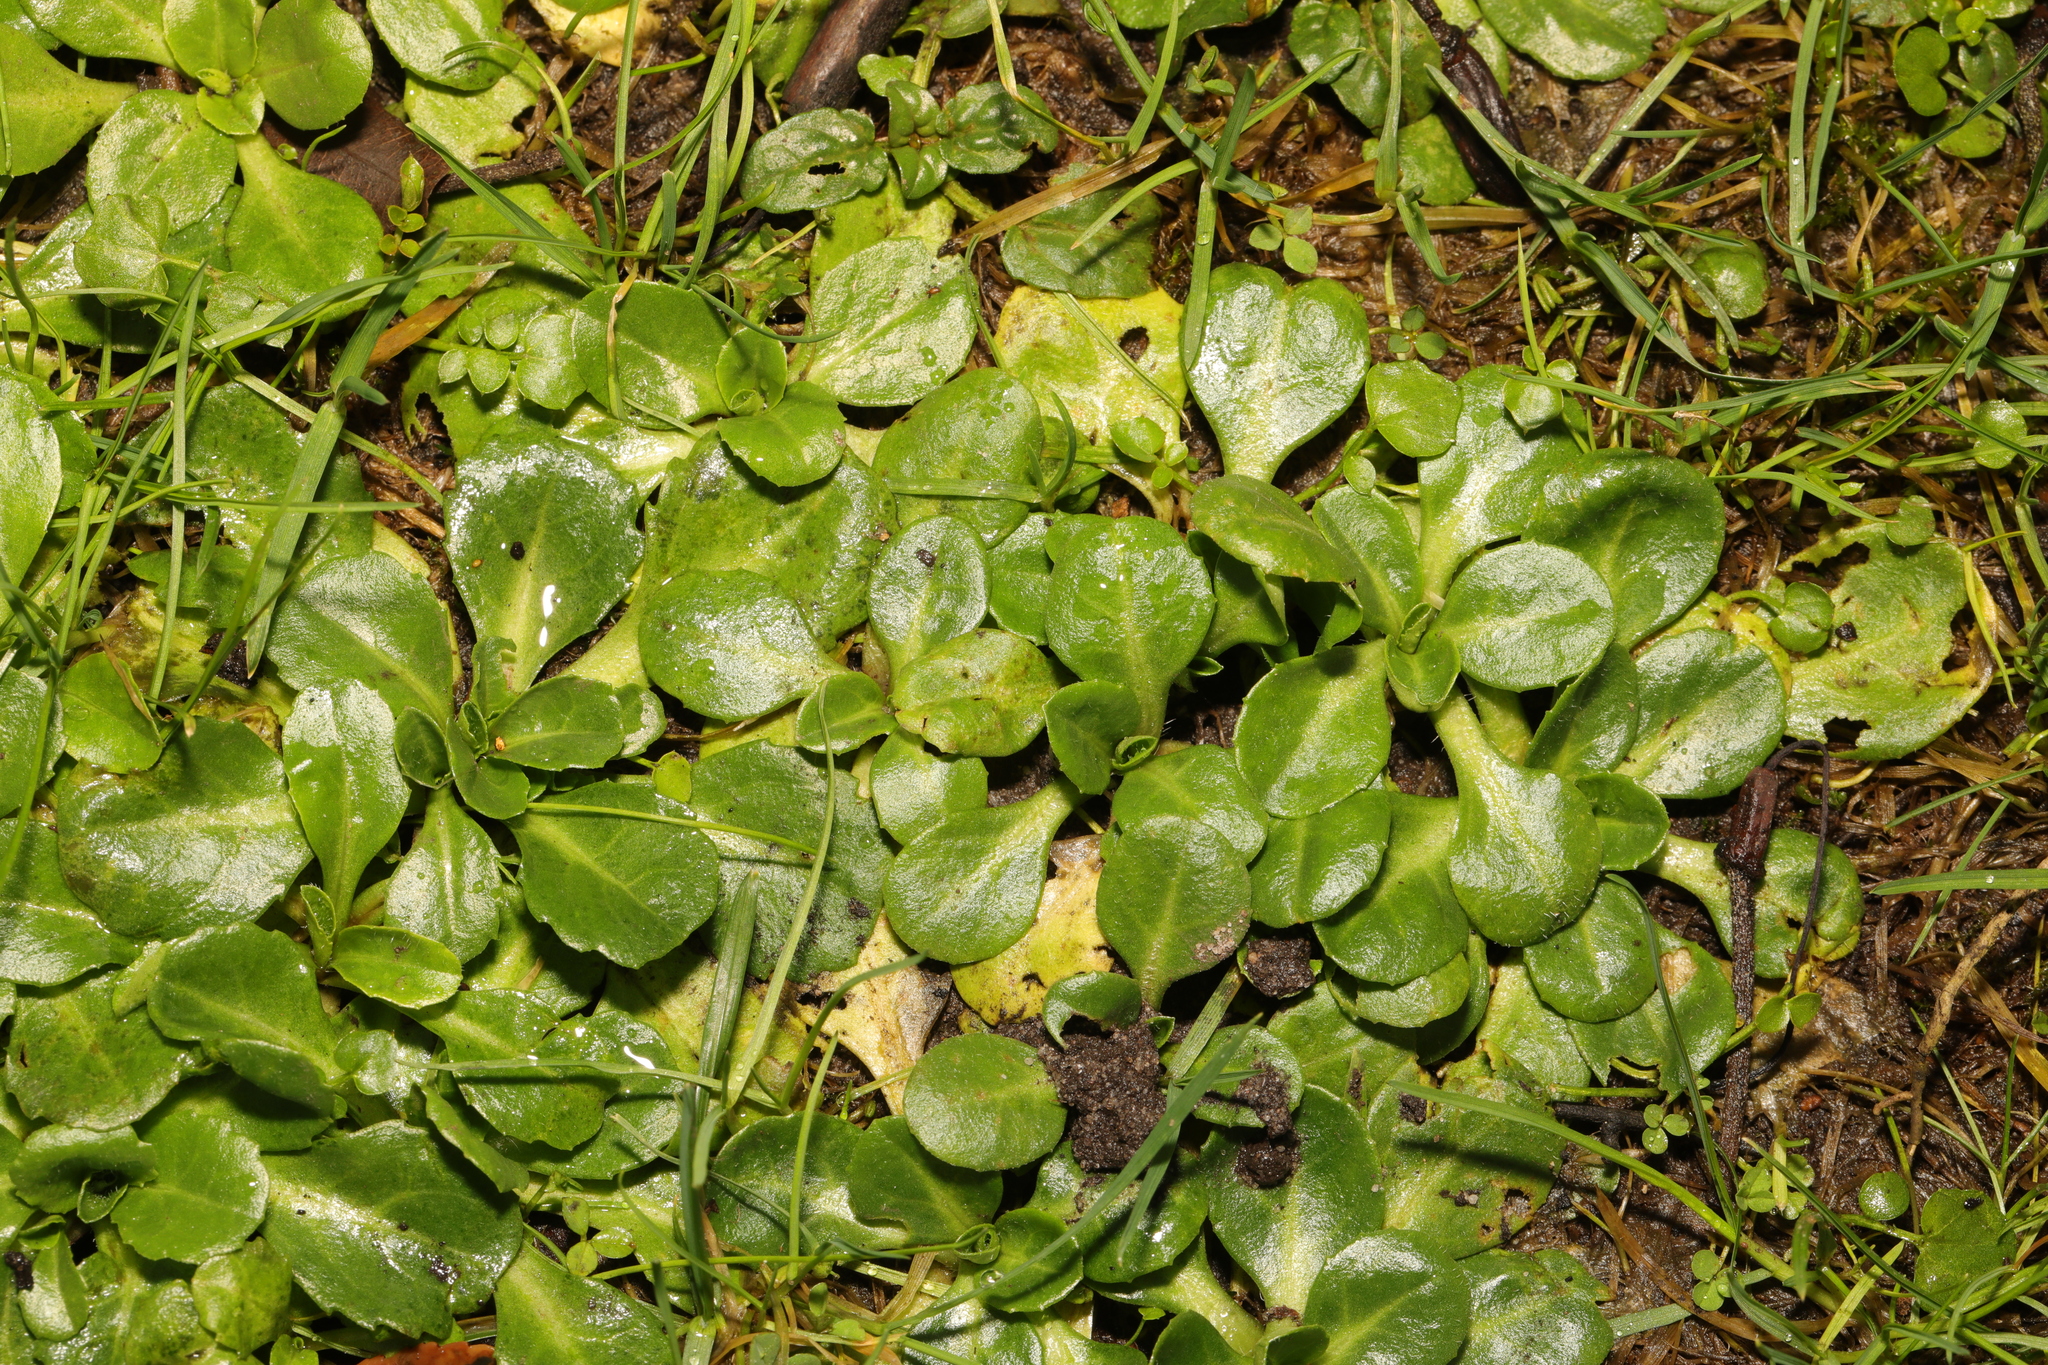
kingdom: Plantae
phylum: Tracheophyta
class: Magnoliopsida
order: Asterales
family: Asteraceae
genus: Bellis
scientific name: Bellis perennis
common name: Lawndaisy
